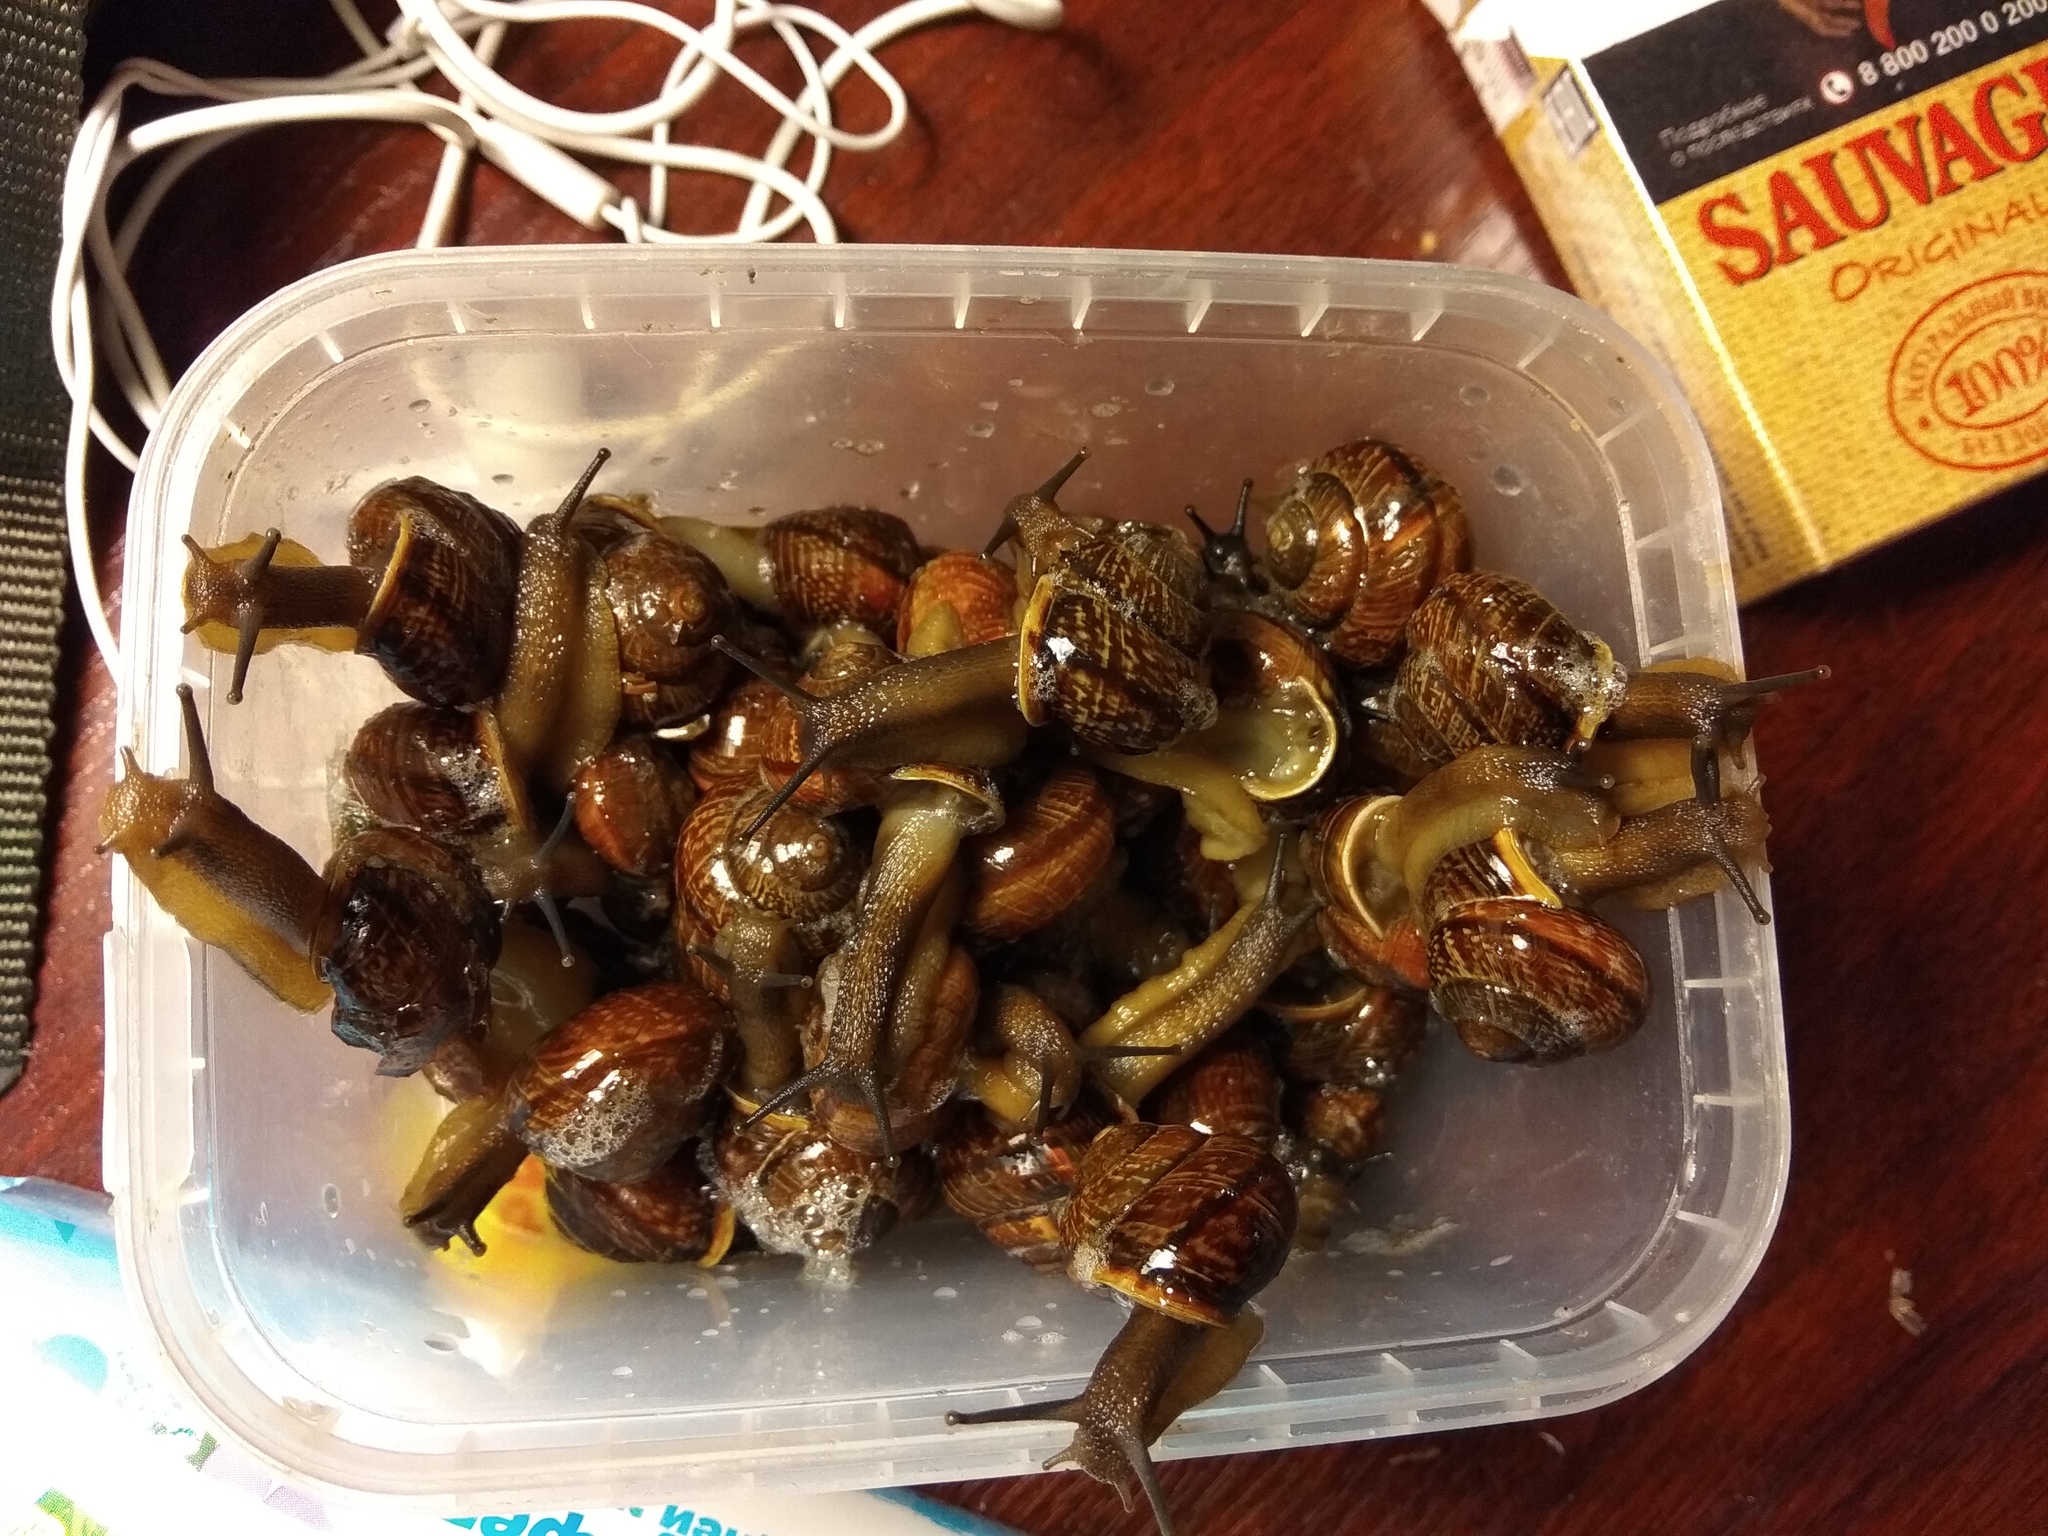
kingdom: Animalia
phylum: Mollusca
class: Gastropoda
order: Stylommatophora
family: Helicidae
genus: Arianta
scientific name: Arianta arbustorum
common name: Copse snail
